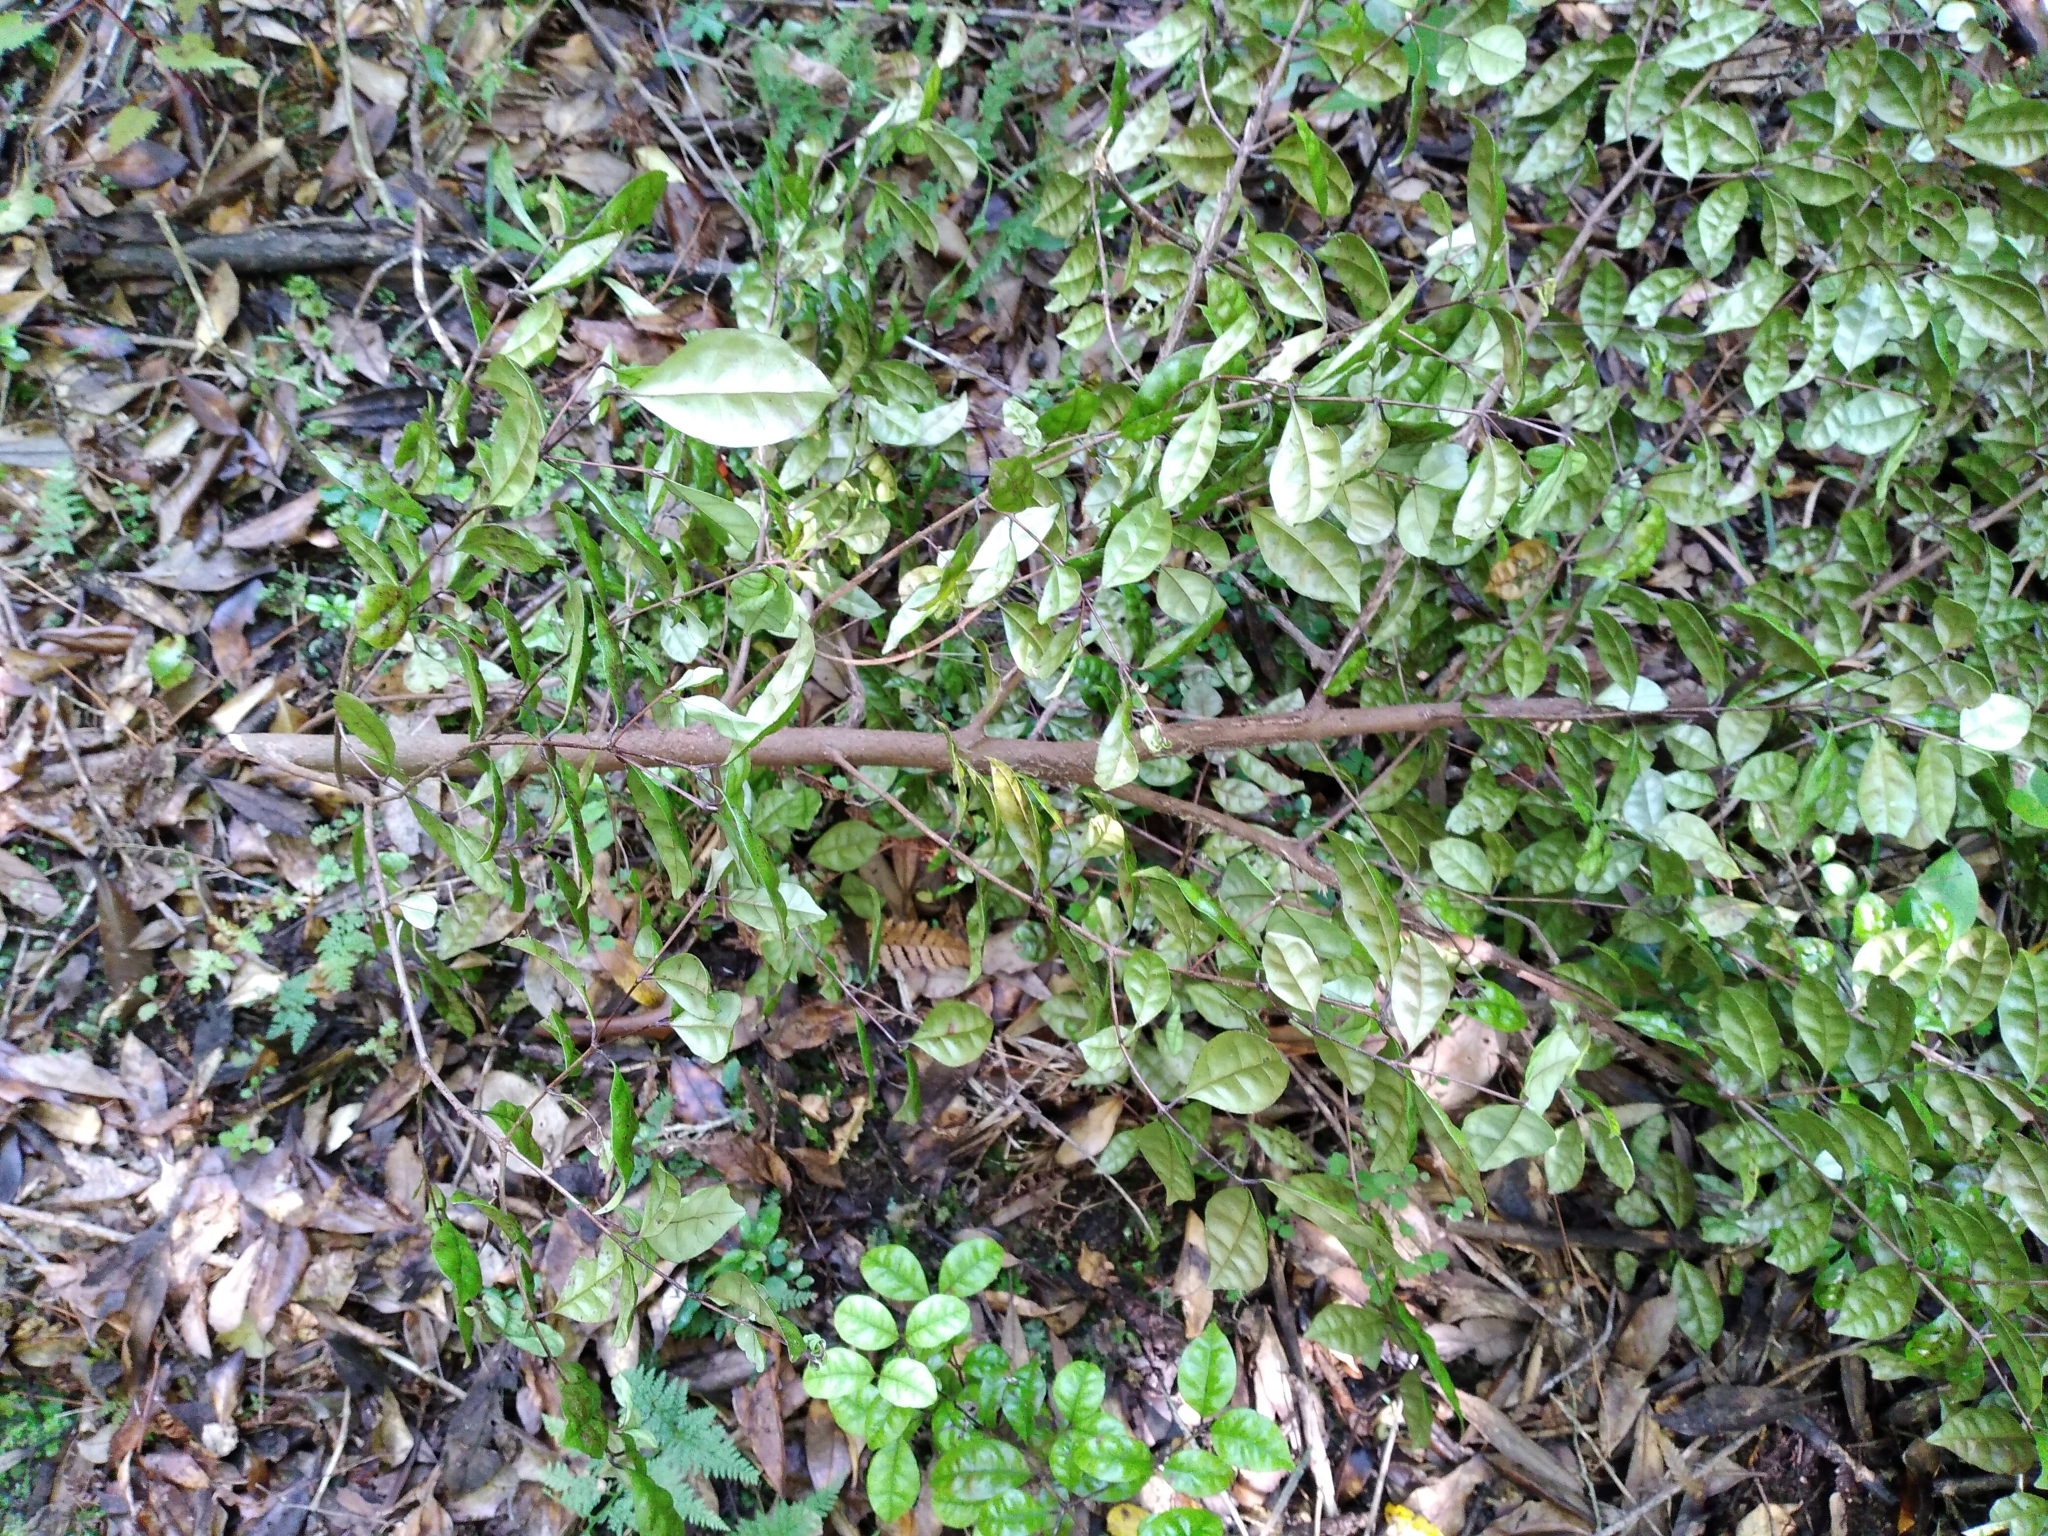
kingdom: Plantae
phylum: Tracheophyta
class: Magnoliopsida
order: Myrtales
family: Myrtaceae
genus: Lophomyrtus
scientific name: Lophomyrtus bullata
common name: Rama rama
